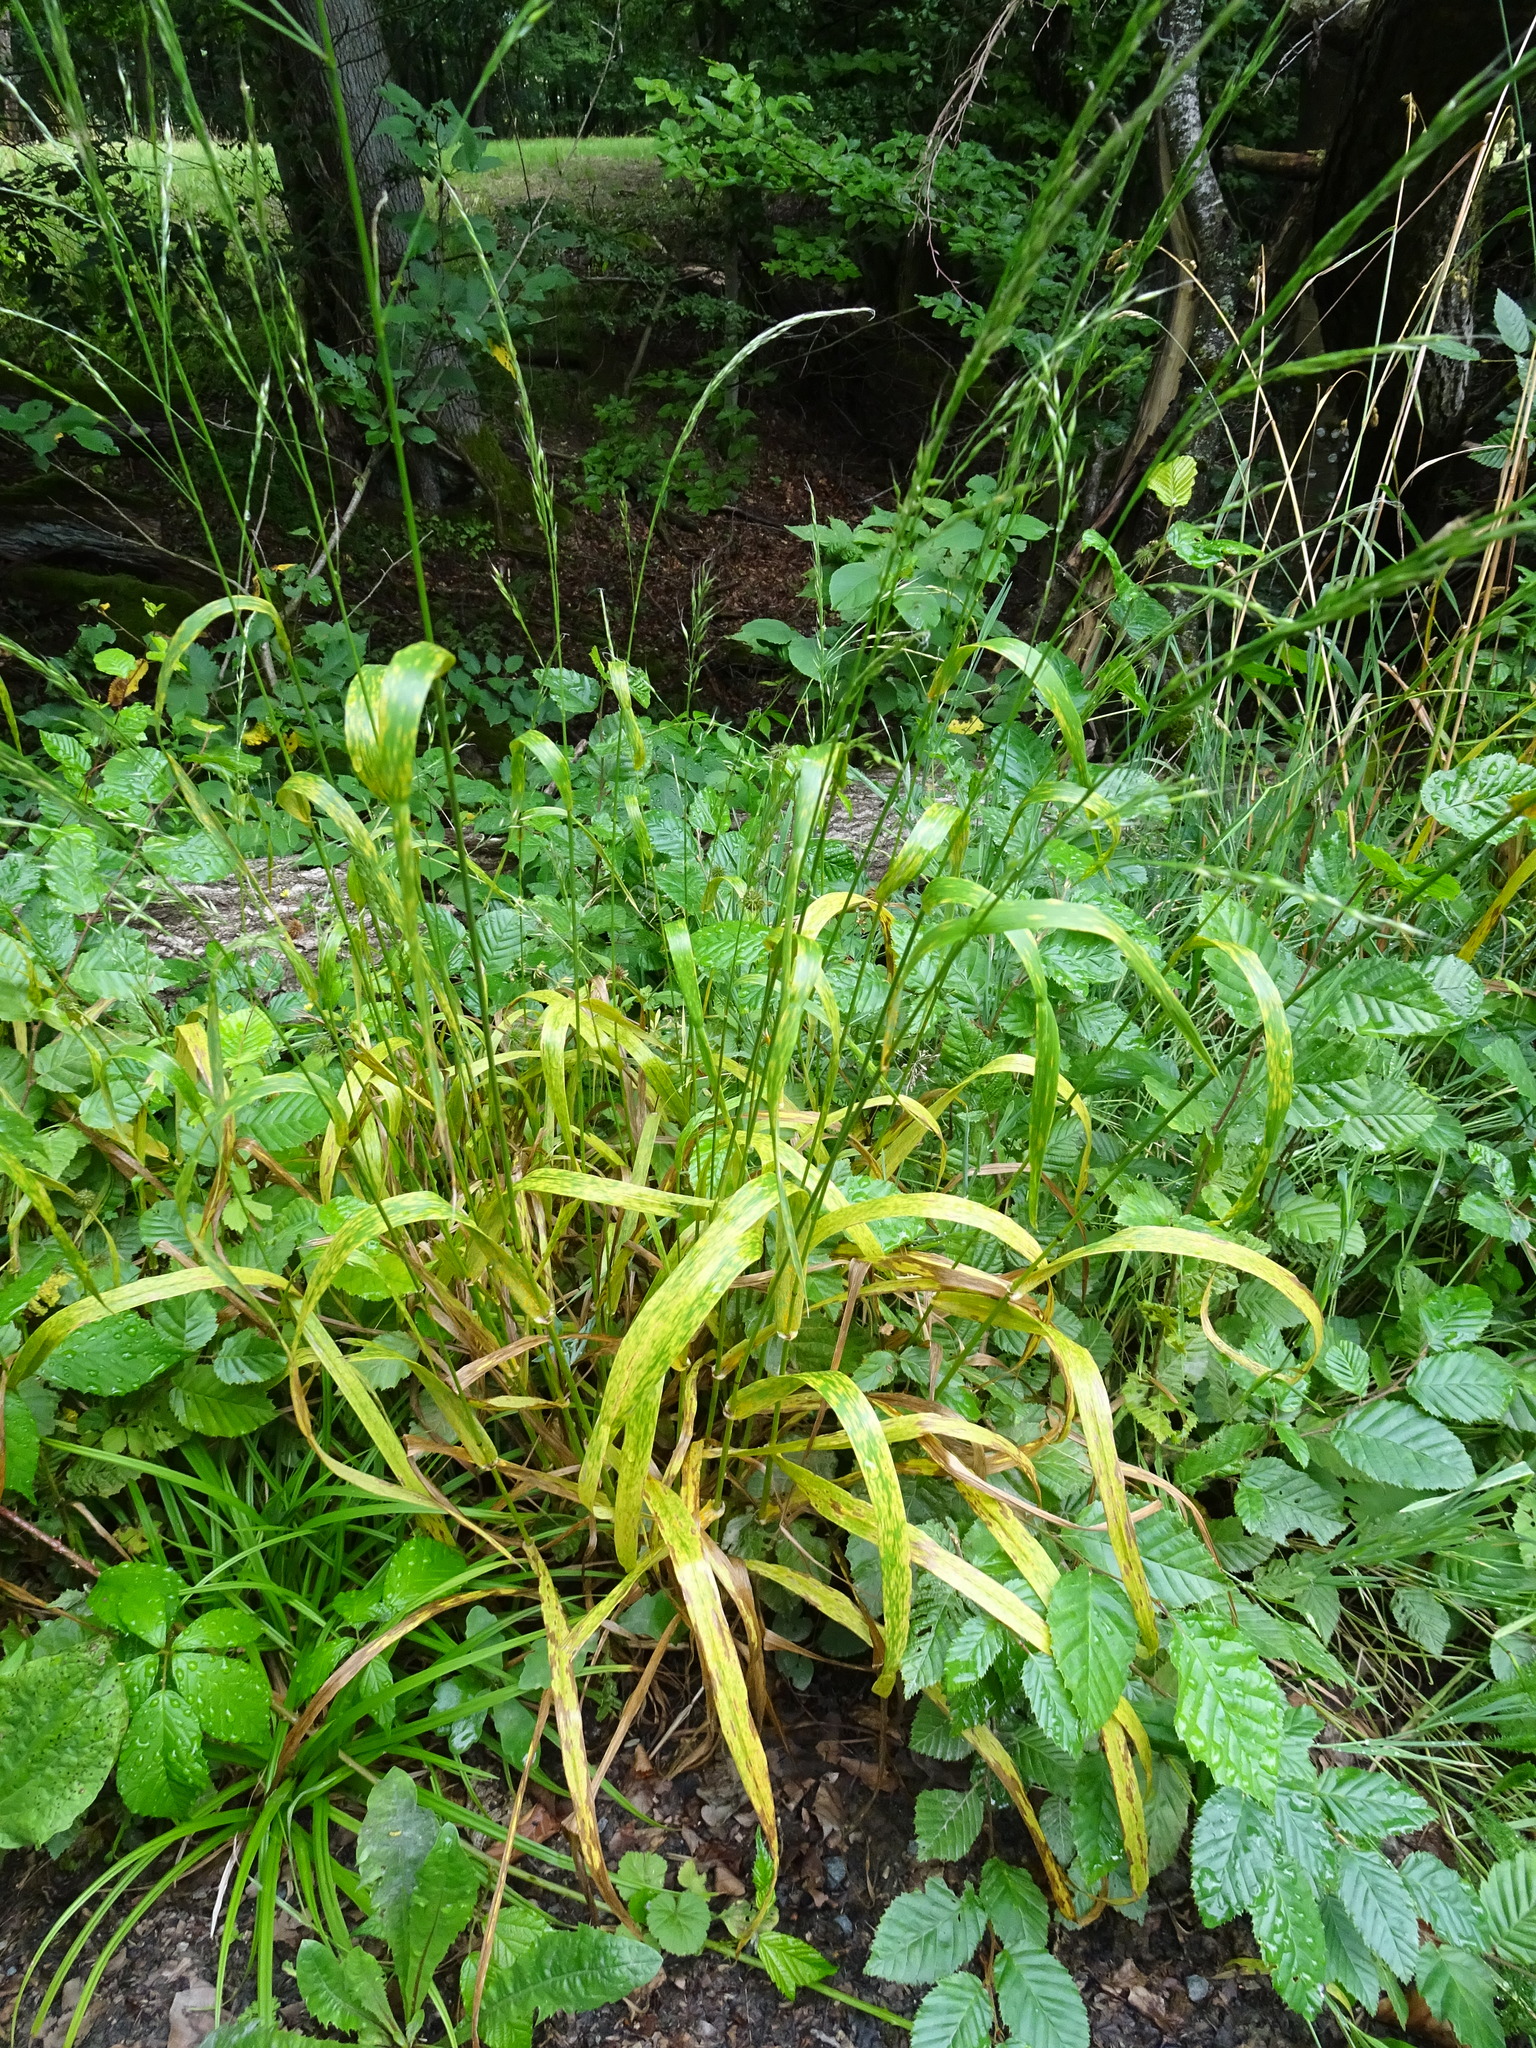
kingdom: Plantae
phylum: Tracheophyta
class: Liliopsida
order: Poales
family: Poaceae
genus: Lolium
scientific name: Lolium giganteum
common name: Giant fescue
